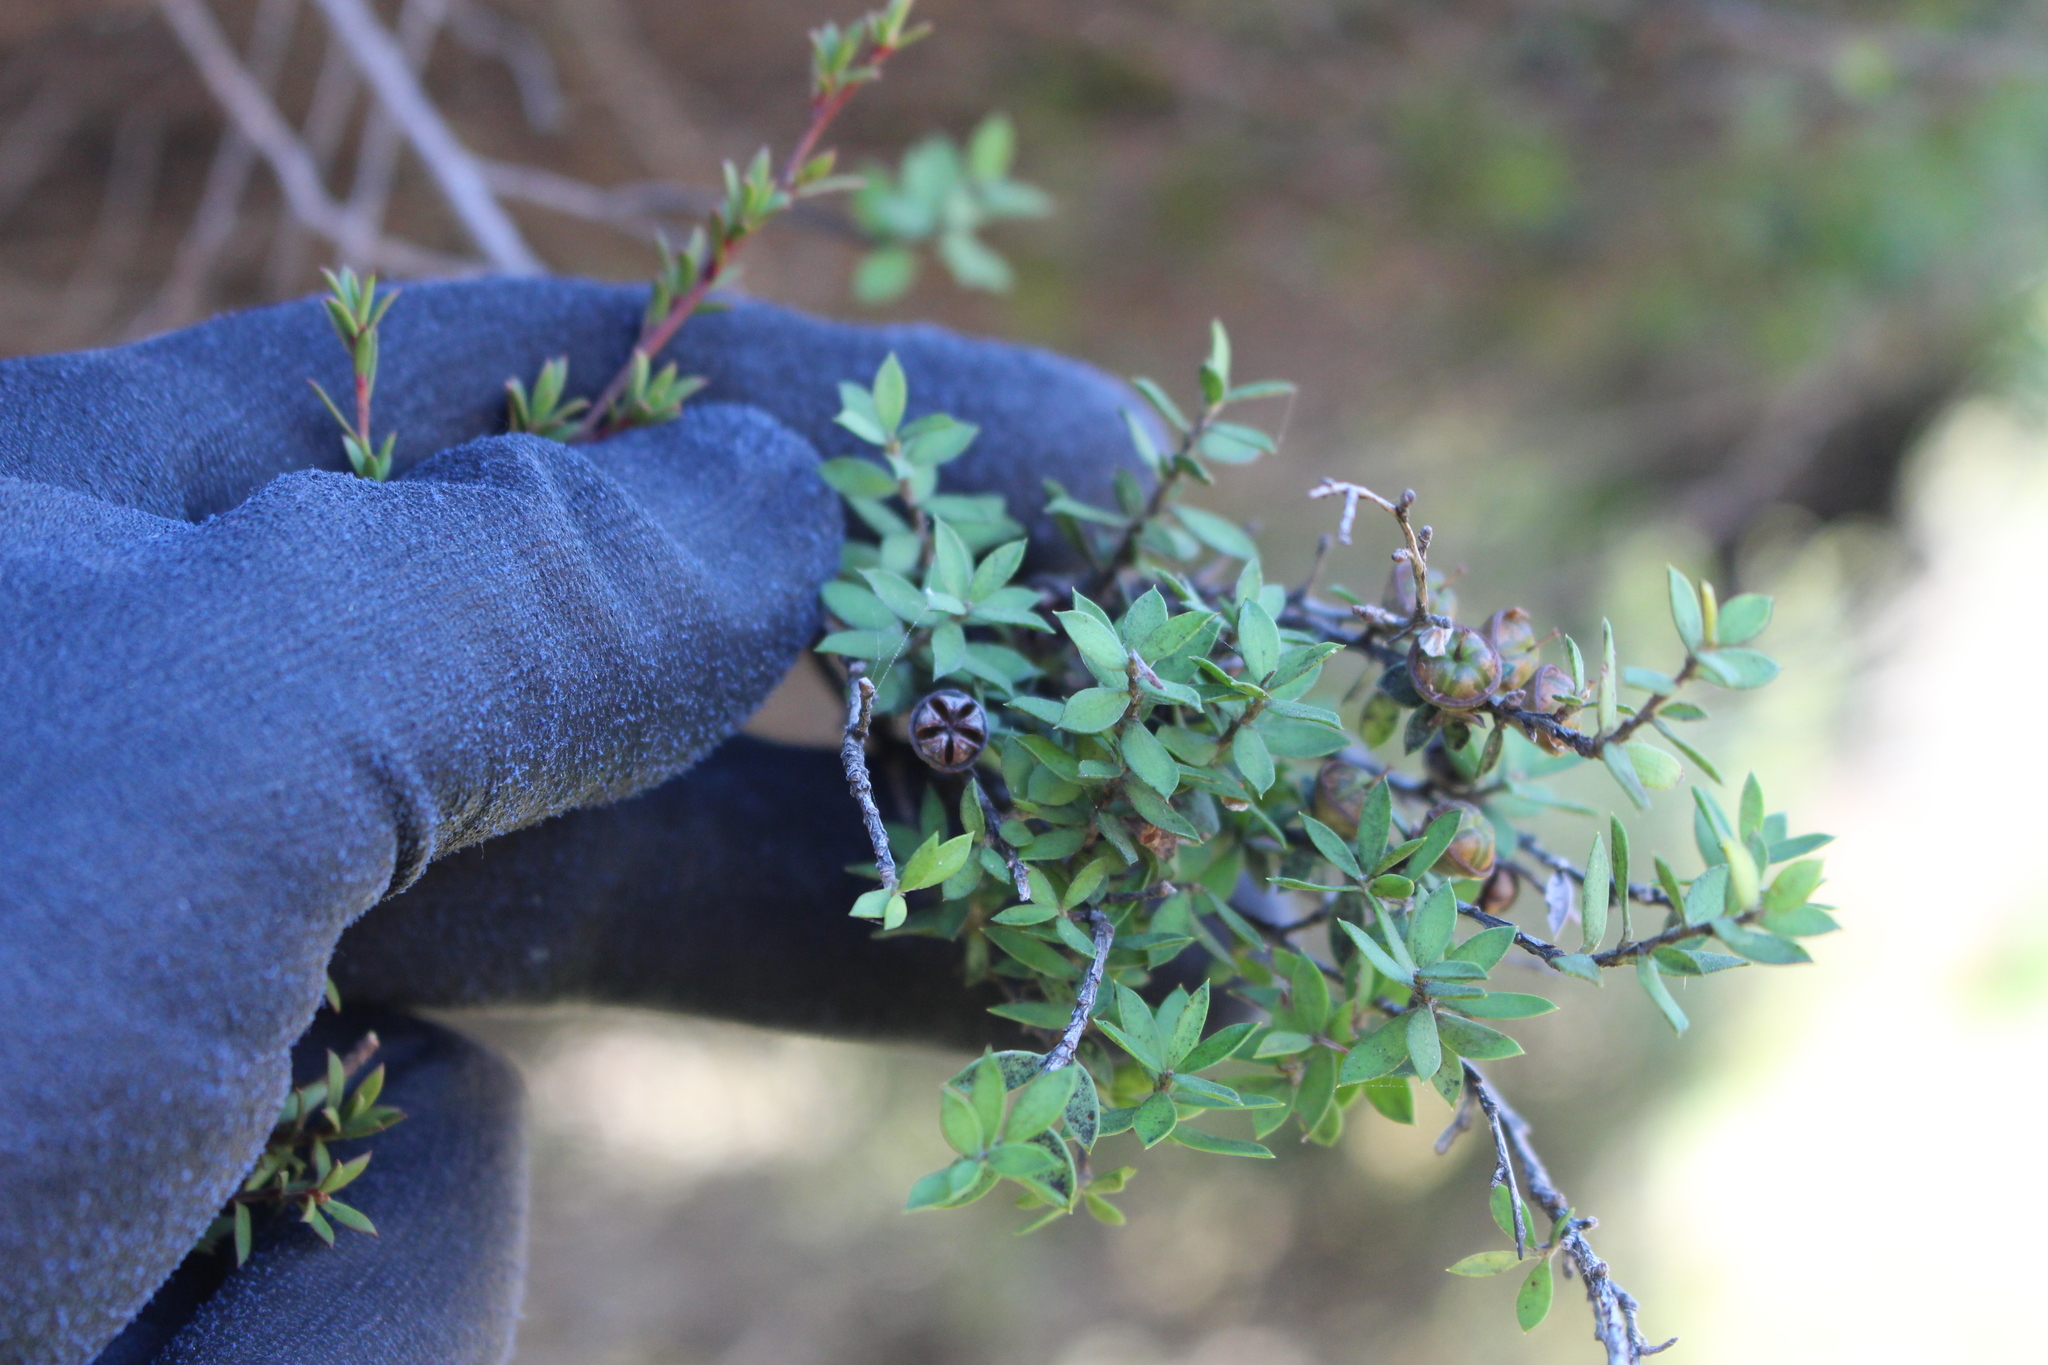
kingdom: Plantae
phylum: Tracheophyta
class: Magnoliopsida
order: Myrtales
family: Myrtaceae
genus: Leptospermum
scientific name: Leptospermum scoparium
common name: Broom tea-tree
